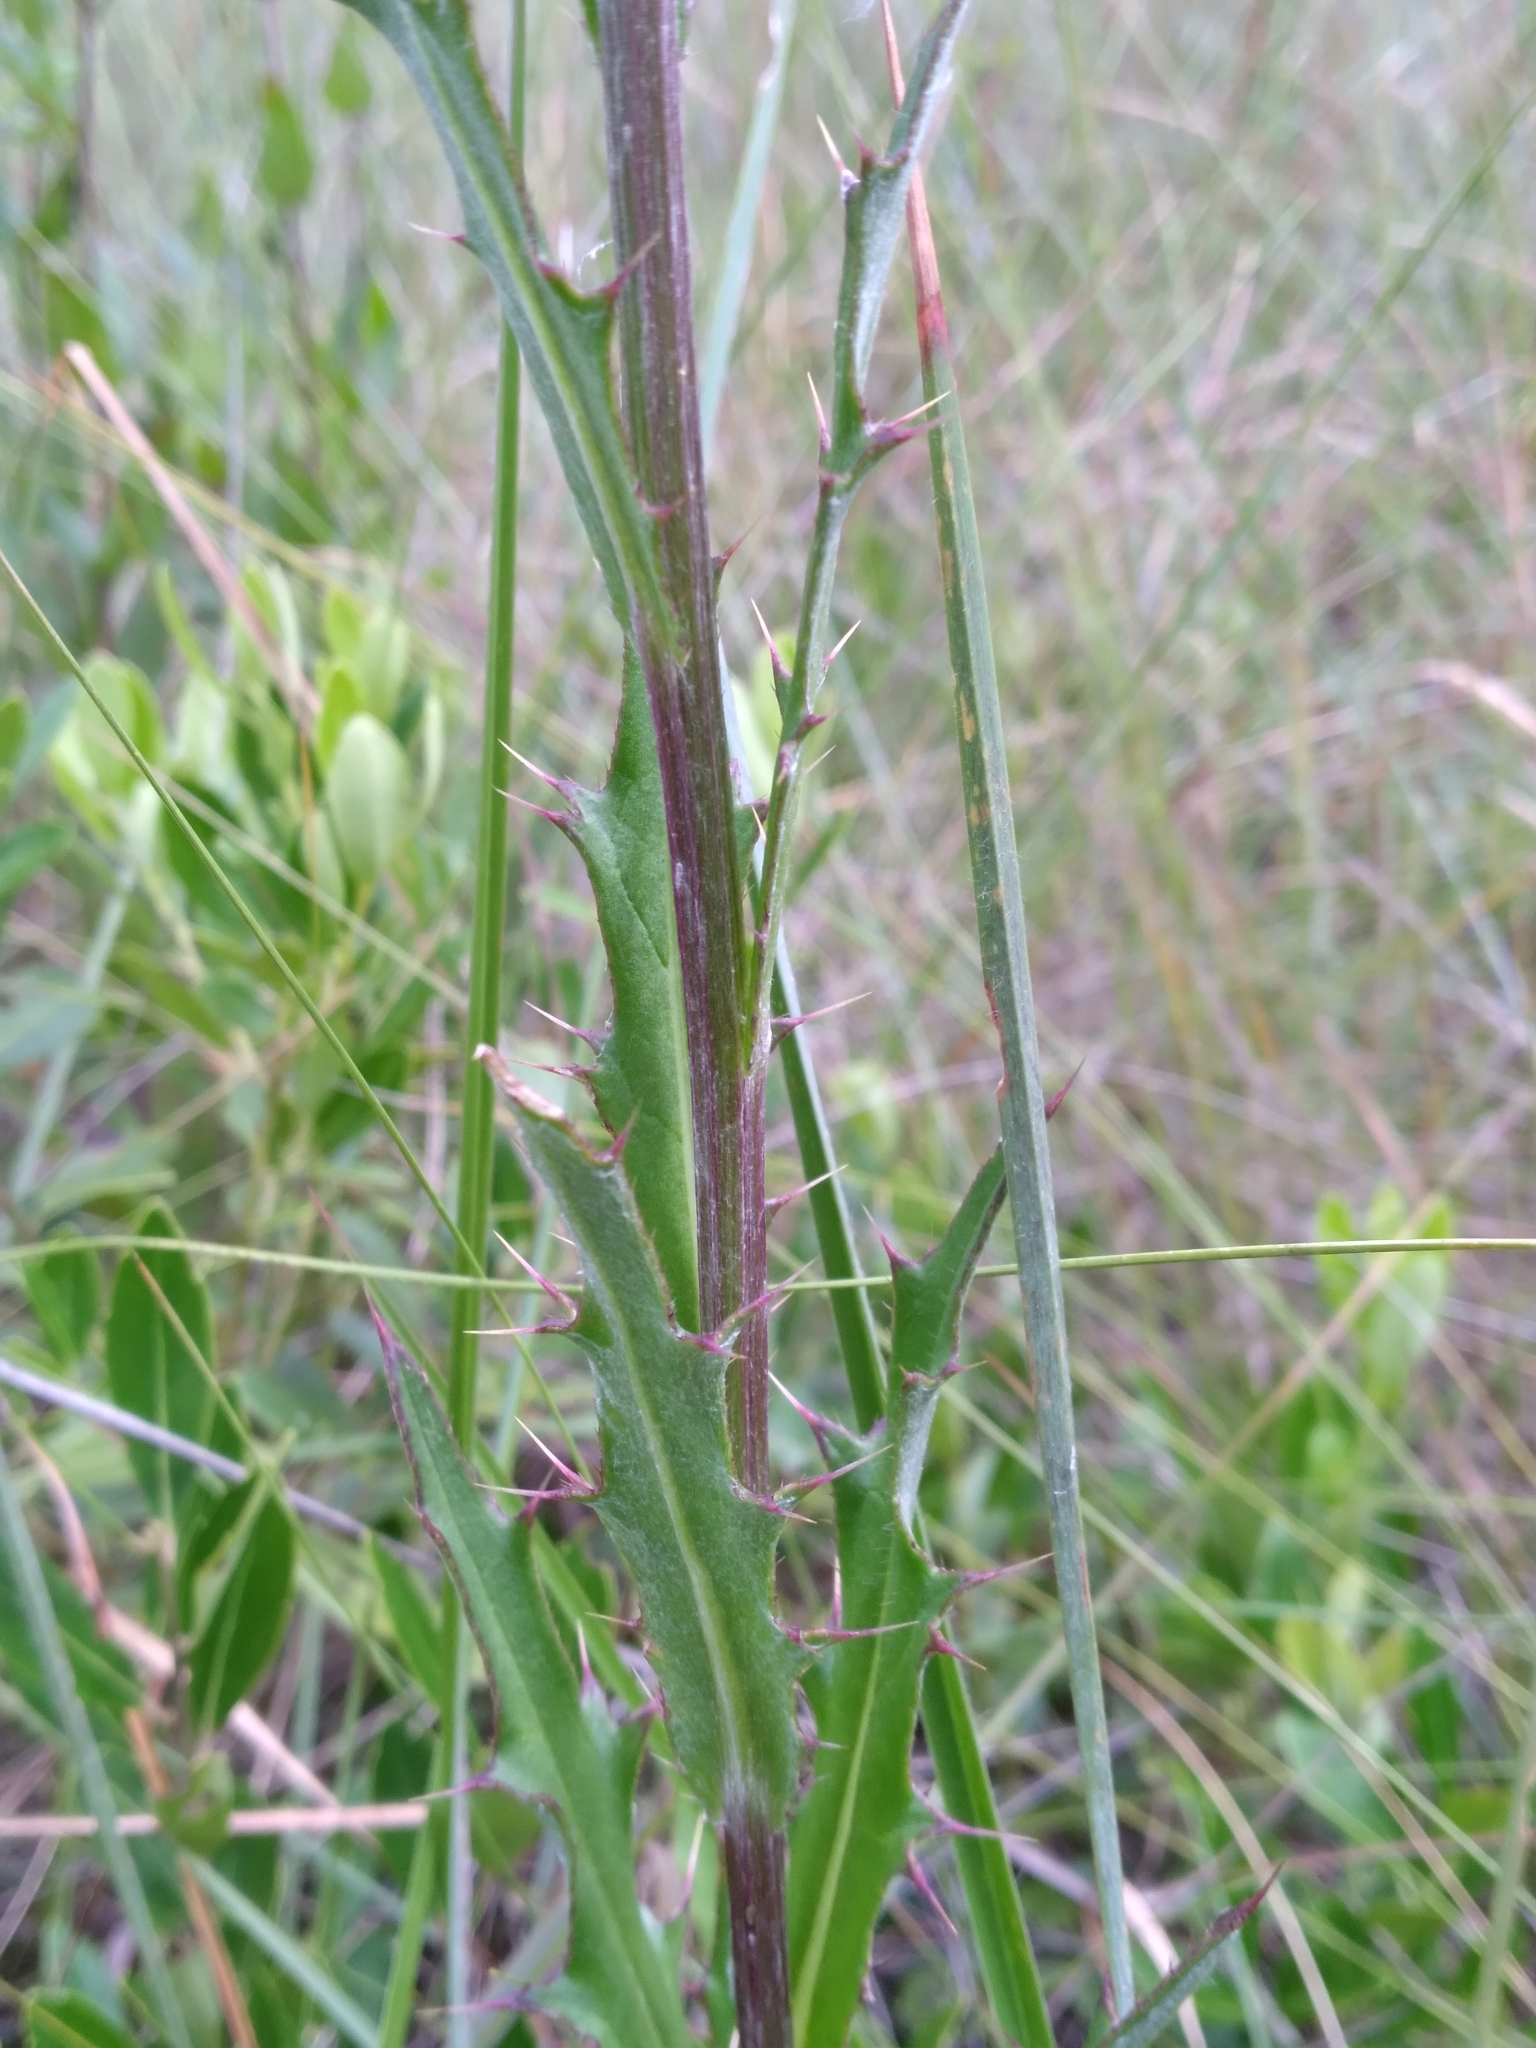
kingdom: Plantae
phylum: Tracheophyta
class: Magnoliopsida
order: Asterales
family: Asteraceae
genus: Cirsium
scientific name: Cirsium lecontei
